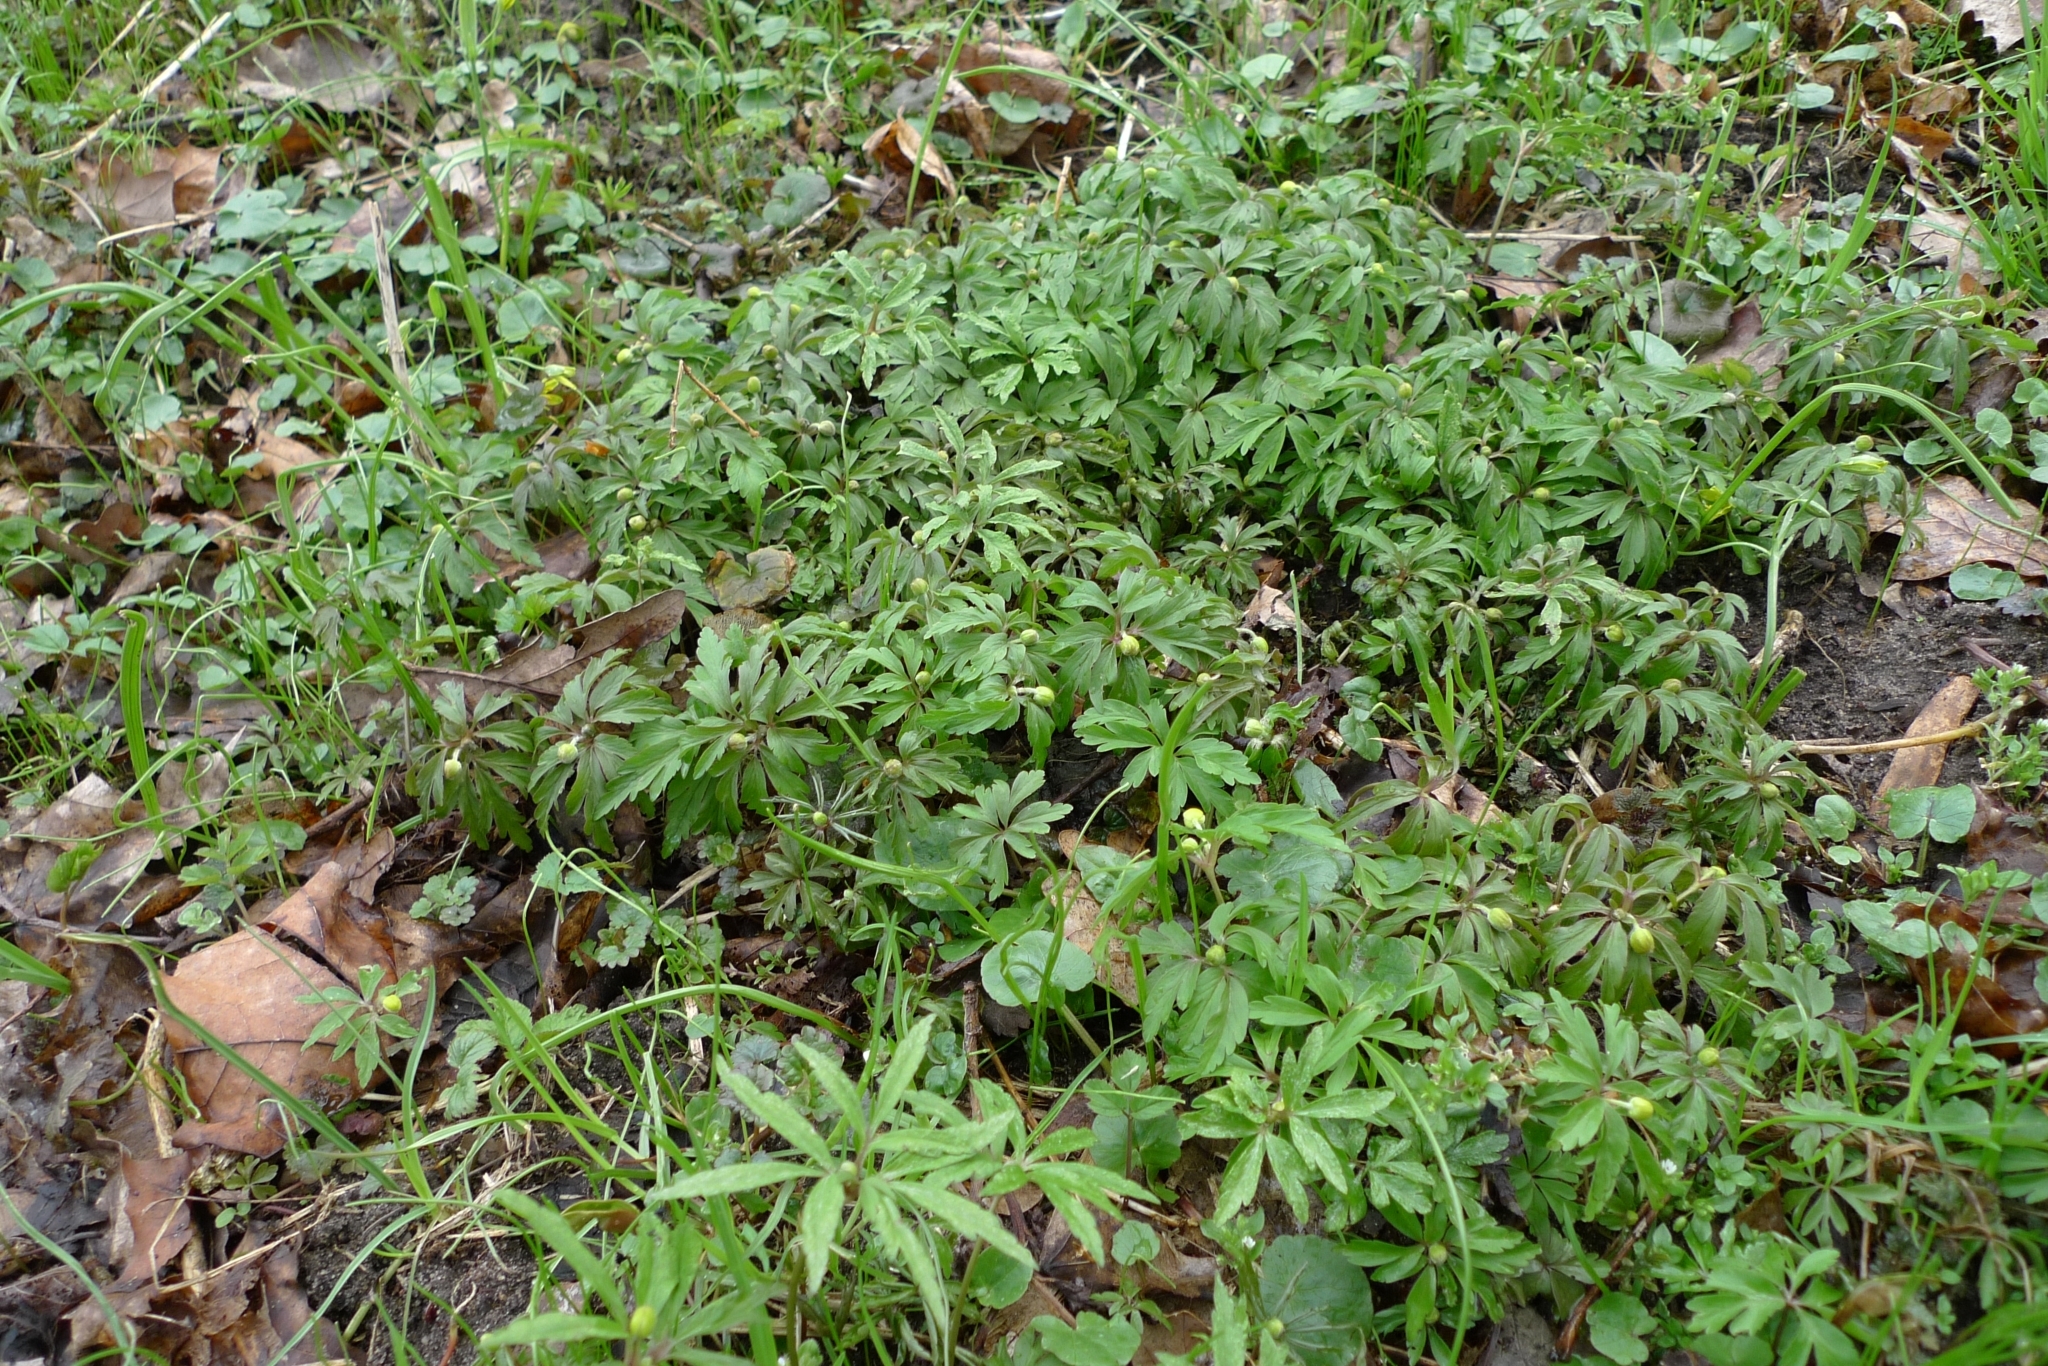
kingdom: Plantae
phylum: Tracheophyta
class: Magnoliopsida
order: Ranunculales
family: Ranunculaceae
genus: Anemone
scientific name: Anemone ranunculoides
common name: Yellow anemone
